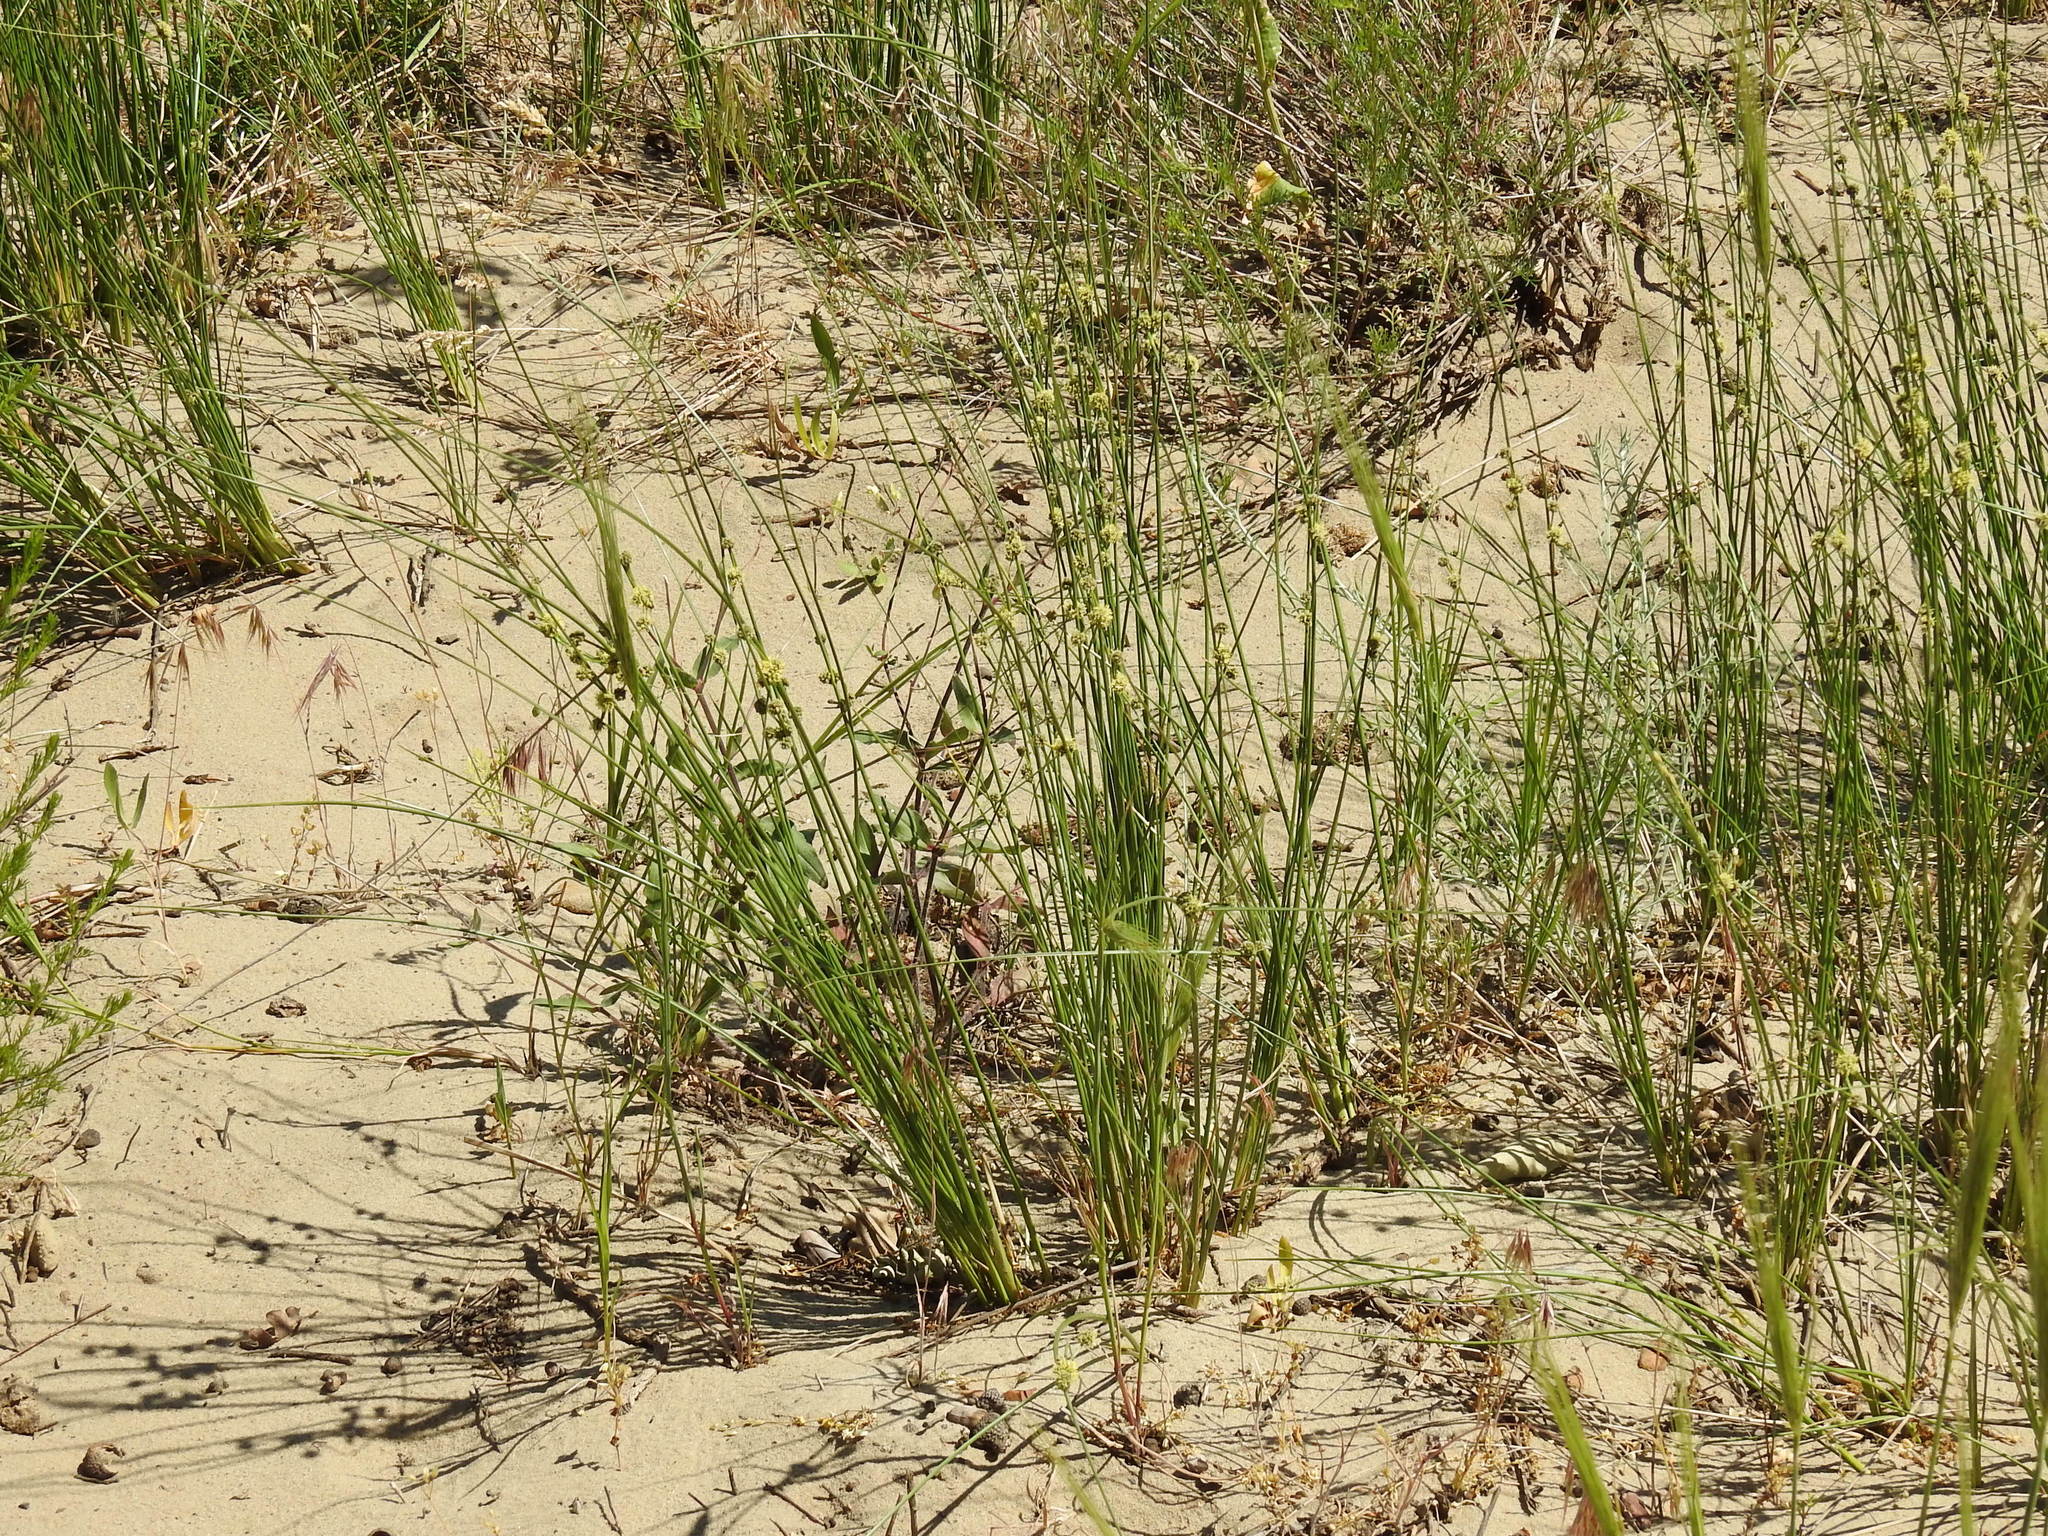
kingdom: Plantae
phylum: Tracheophyta
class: Liliopsida
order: Poales
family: Cyperaceae
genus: Scirpoides
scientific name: Scirpoides holoschoenus
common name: Round-headed club-rush
